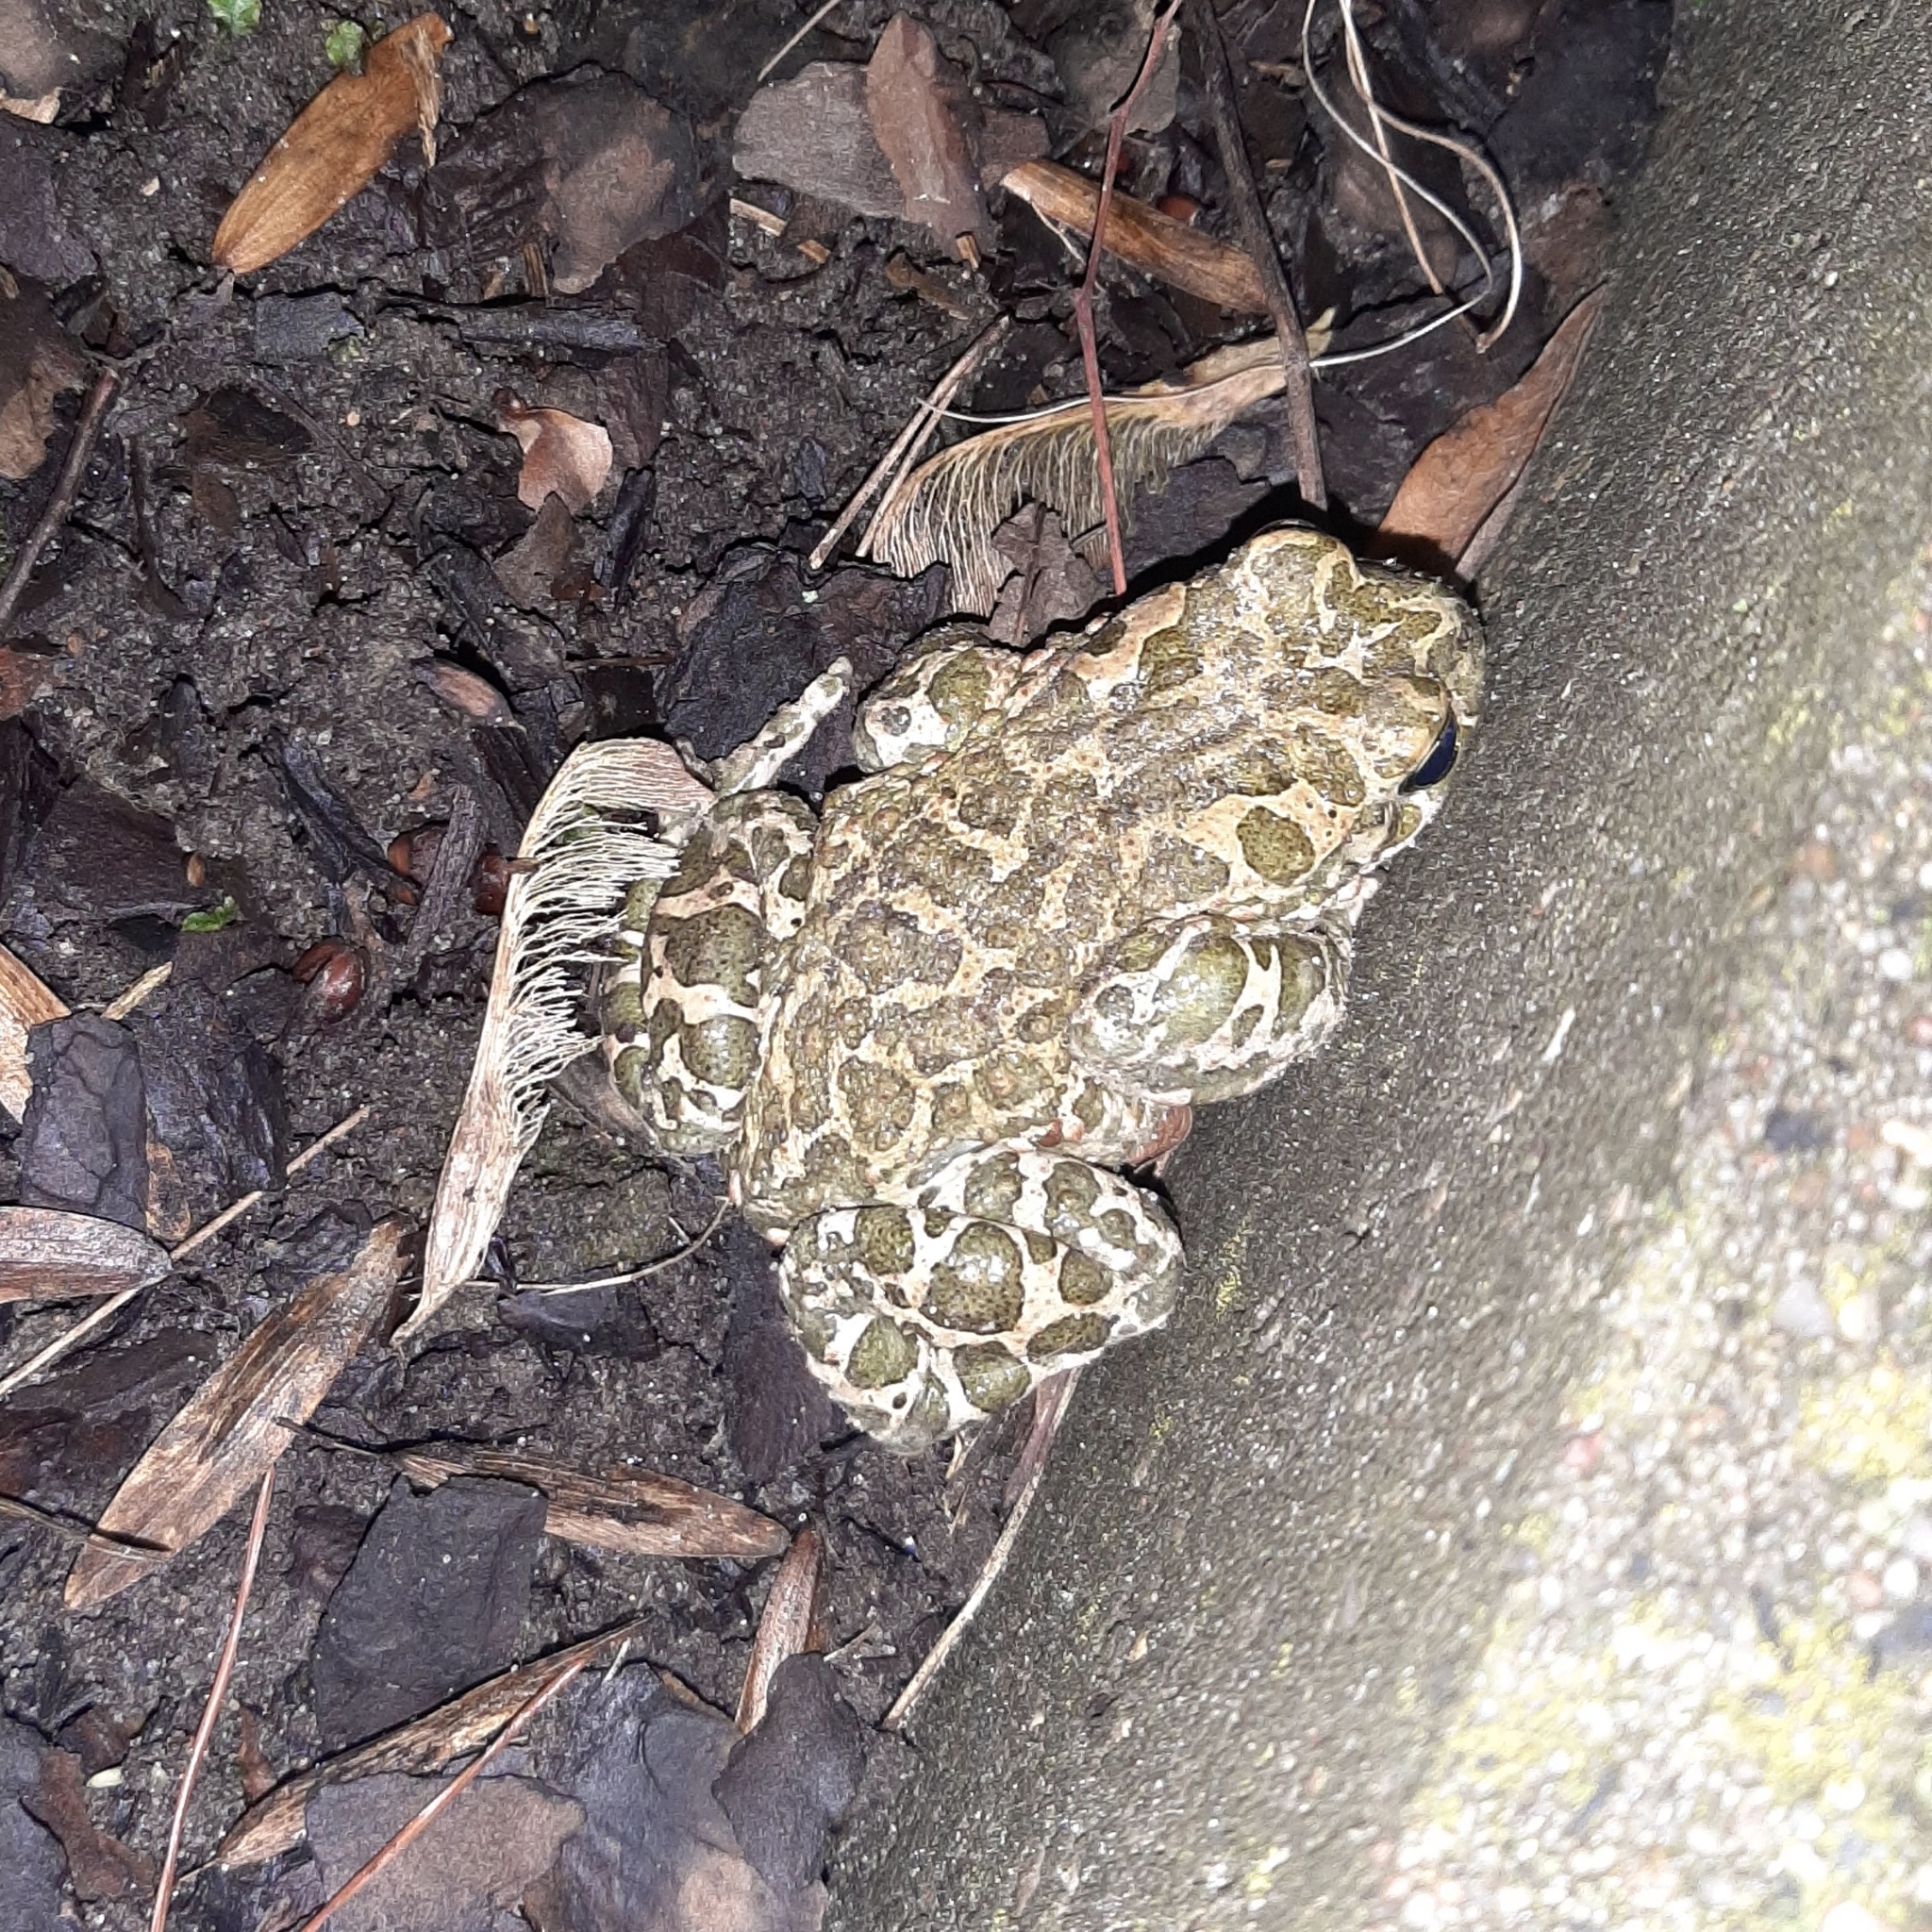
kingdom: Animalia
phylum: Chordata
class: Amphibia
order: Anura
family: Bufonidae
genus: Bufotes
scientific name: Bufotes viridis
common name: European green toad
